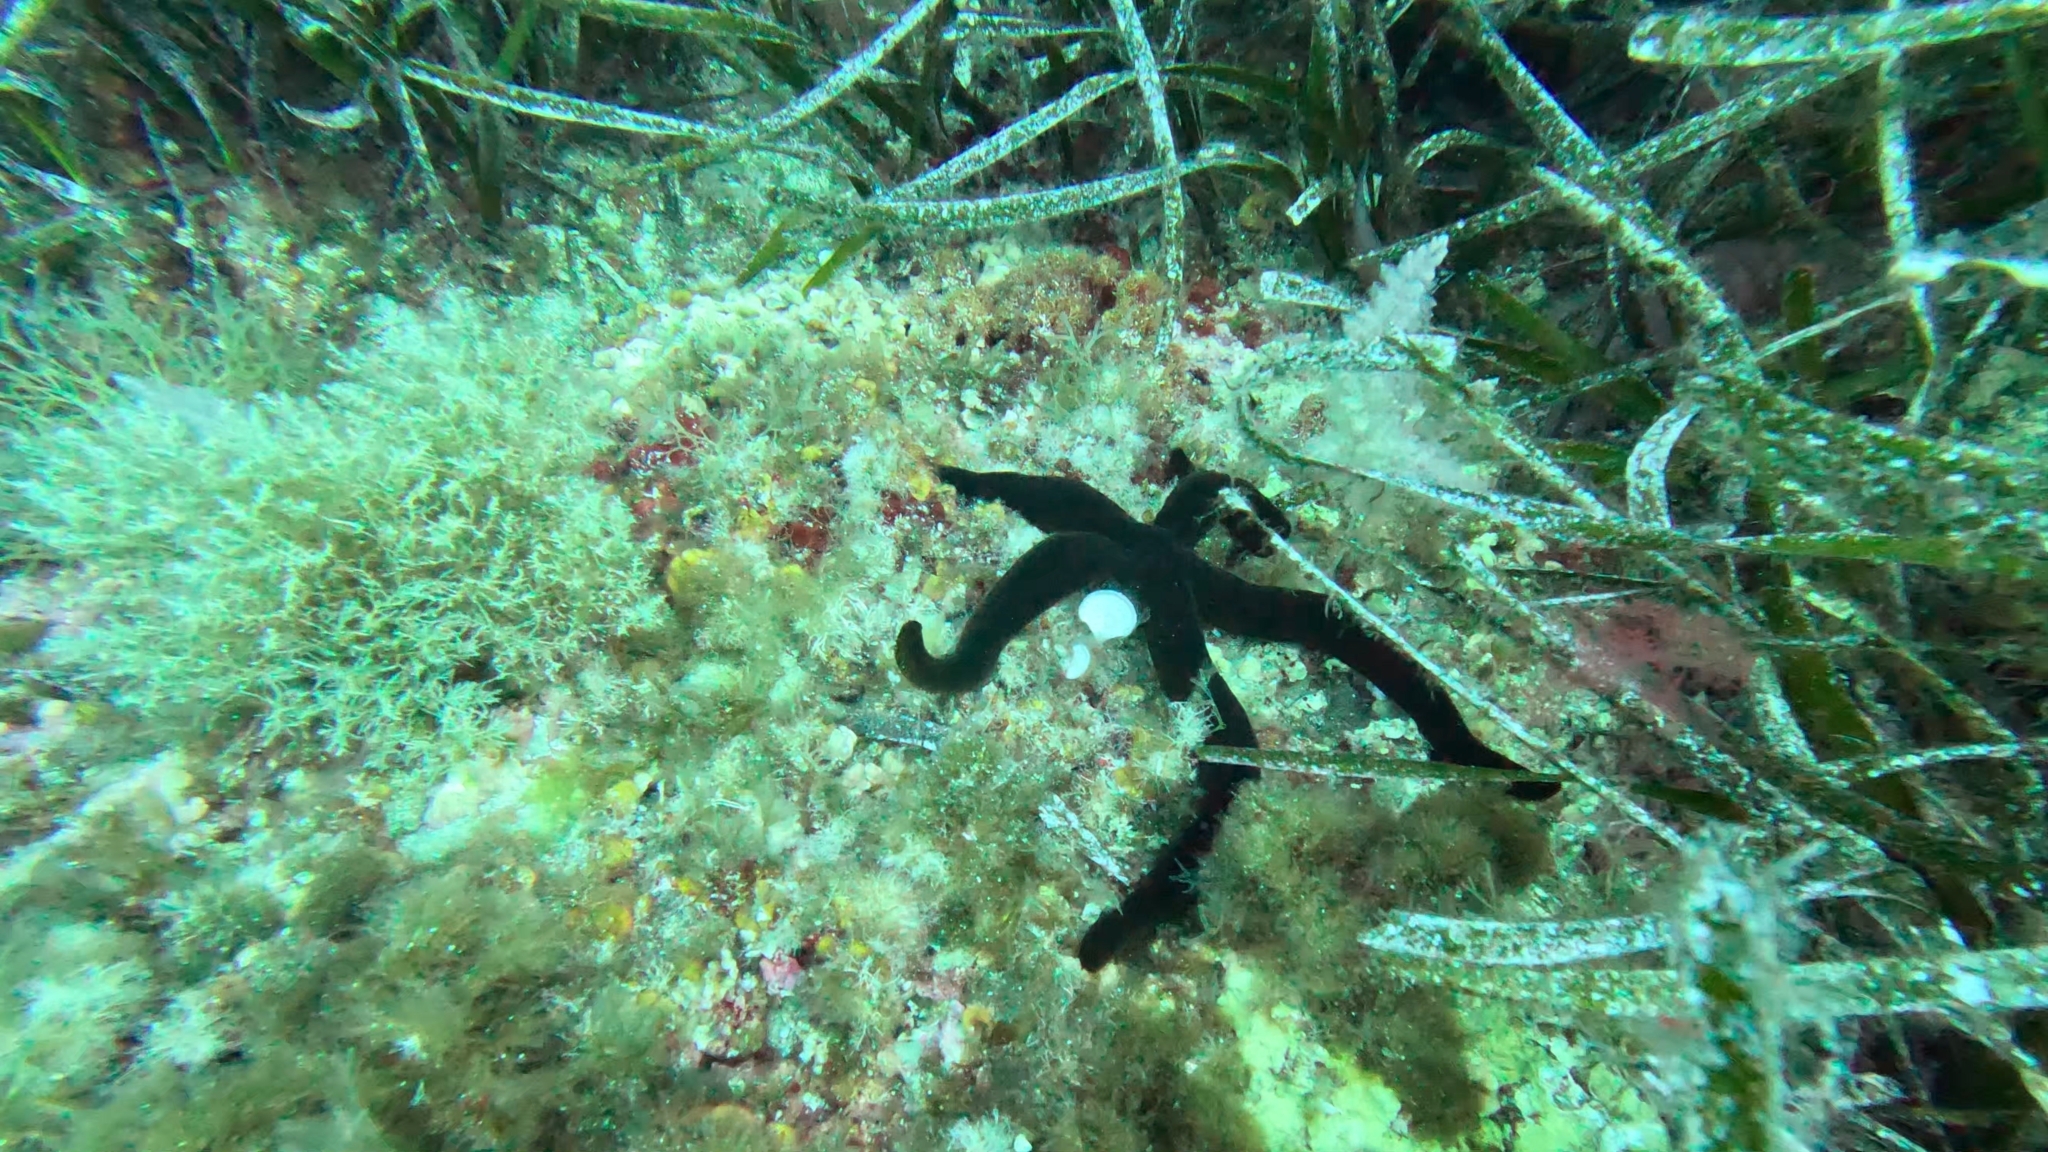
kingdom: Animalia
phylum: Echinodermata
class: Asteroidea
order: Valvatida
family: Ophidiasteridae
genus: Ophidiaster
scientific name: Ophidiaster ophidianus
